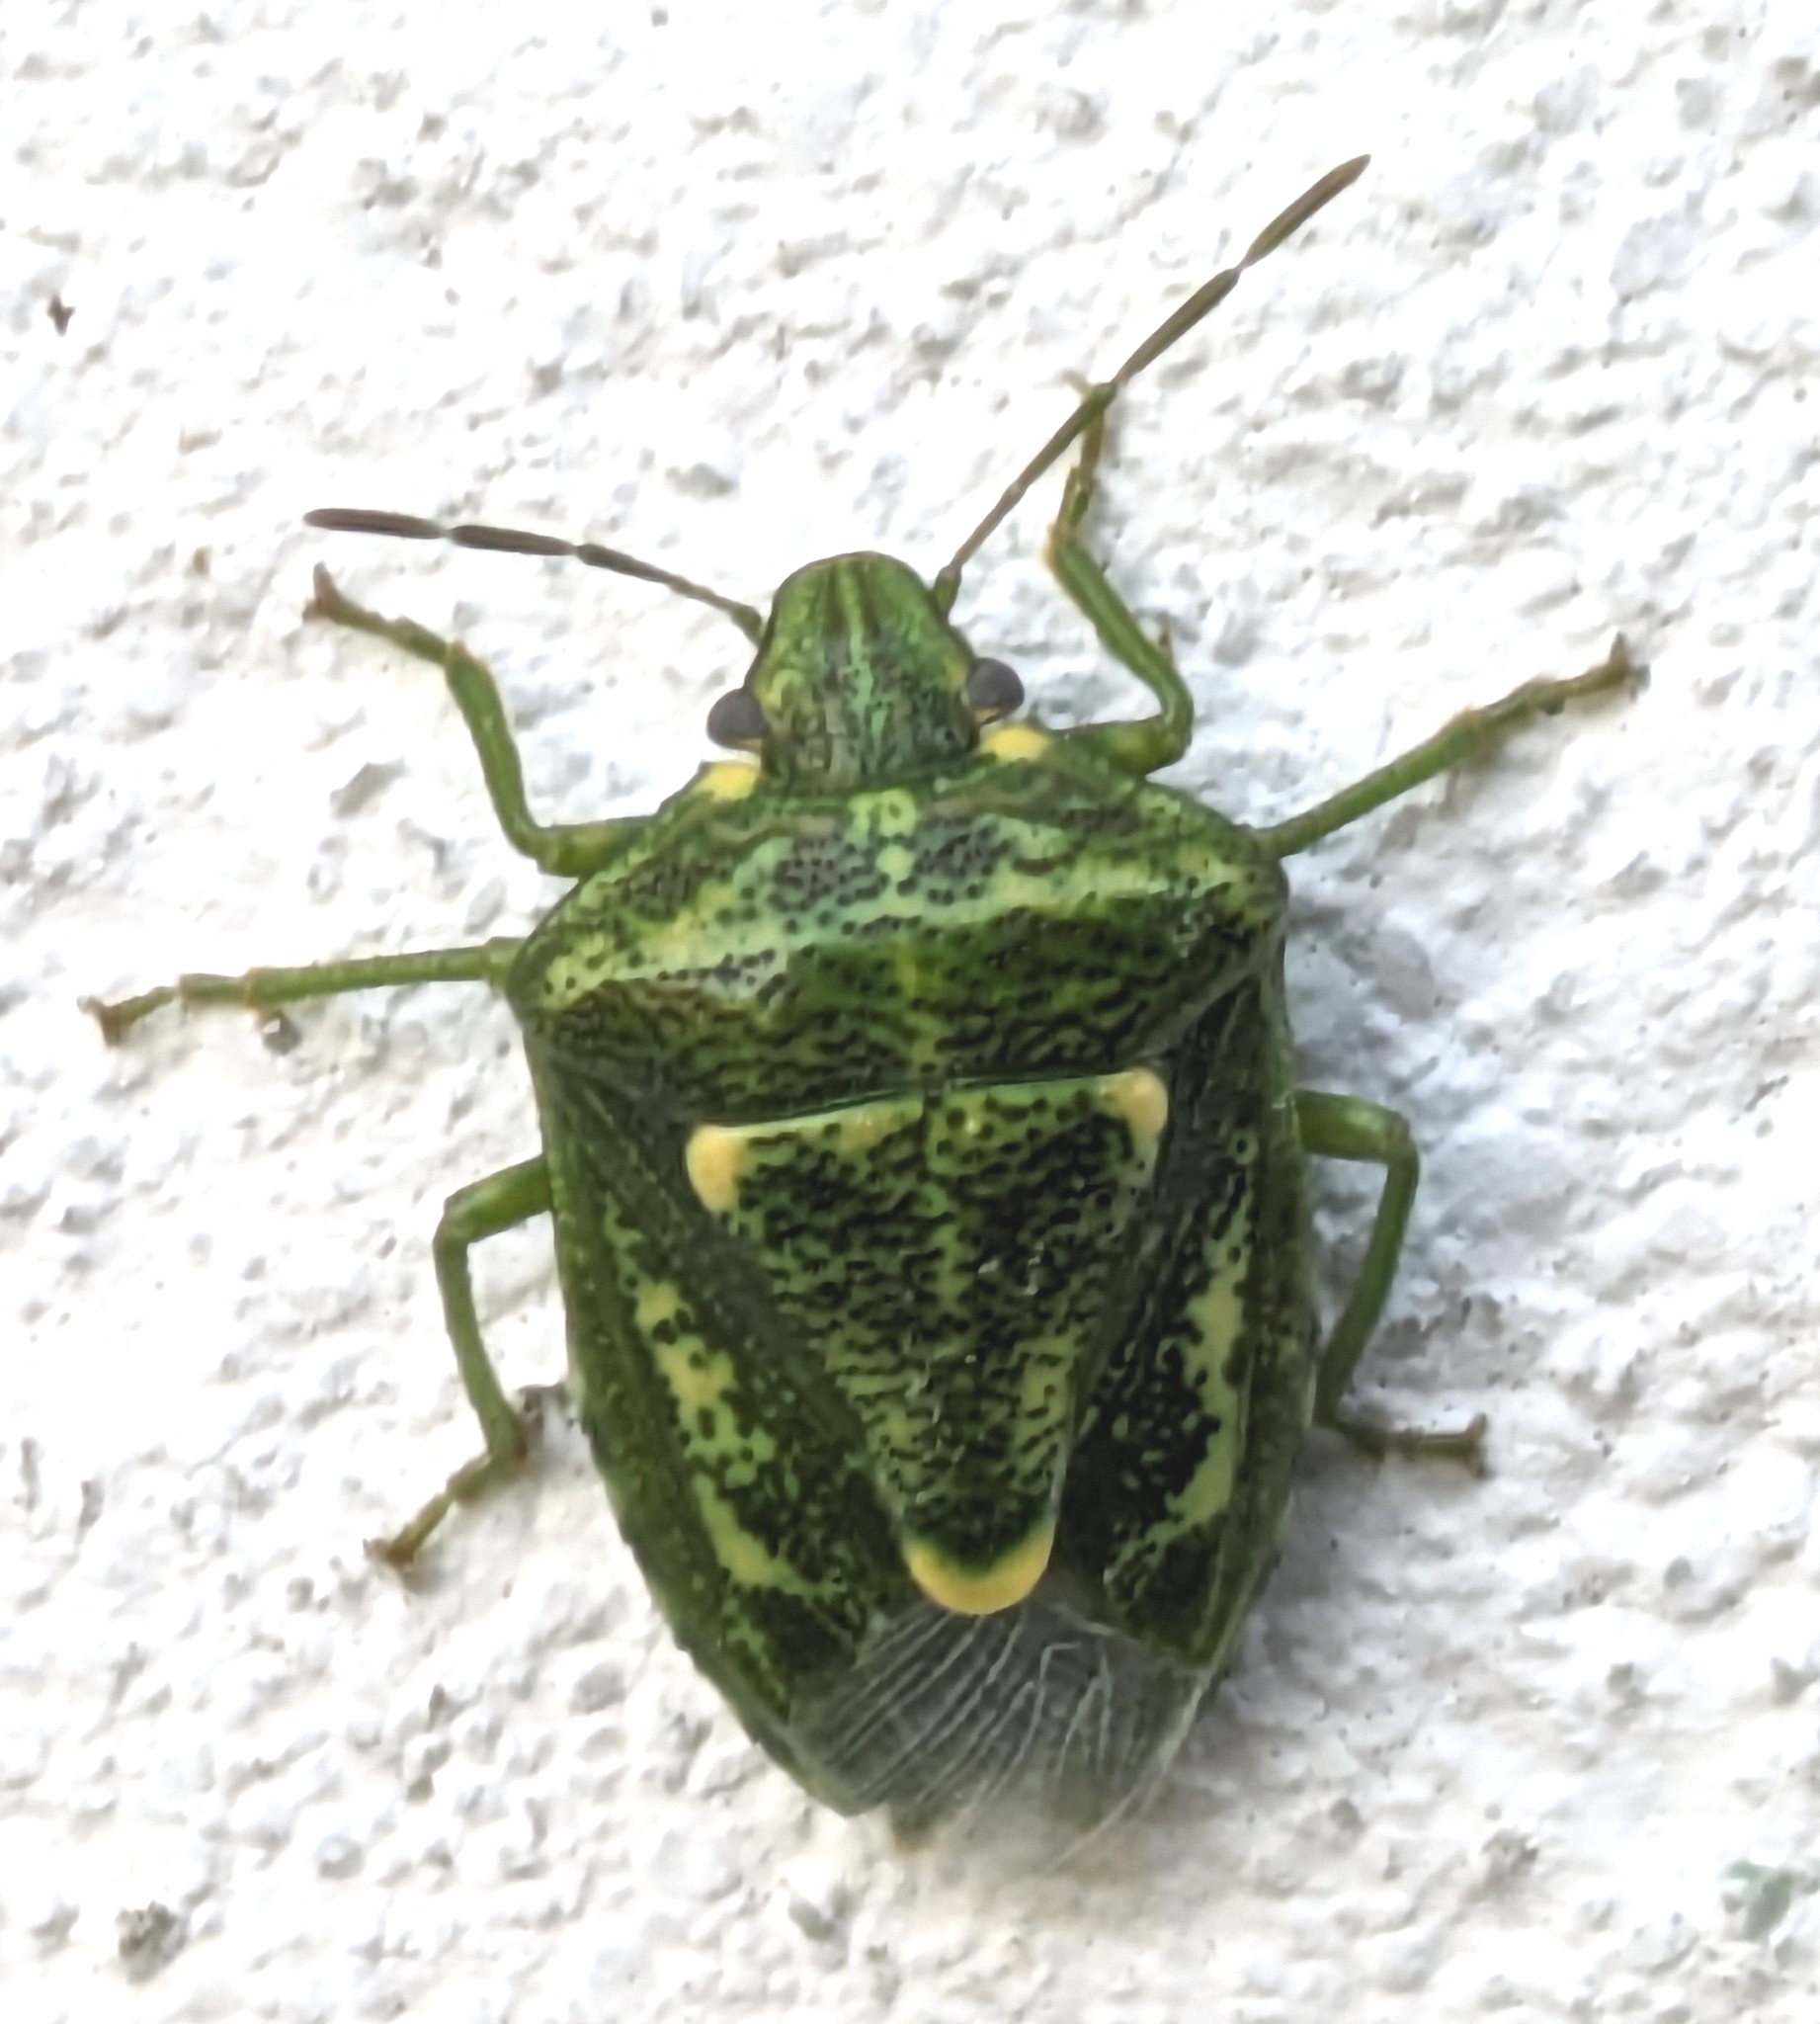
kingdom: Animalia
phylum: Arthropoda
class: Insecta
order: Hemiptera
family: Pentatomidae
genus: Banasa
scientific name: Banasa euchlora
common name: Cedar berry bug
